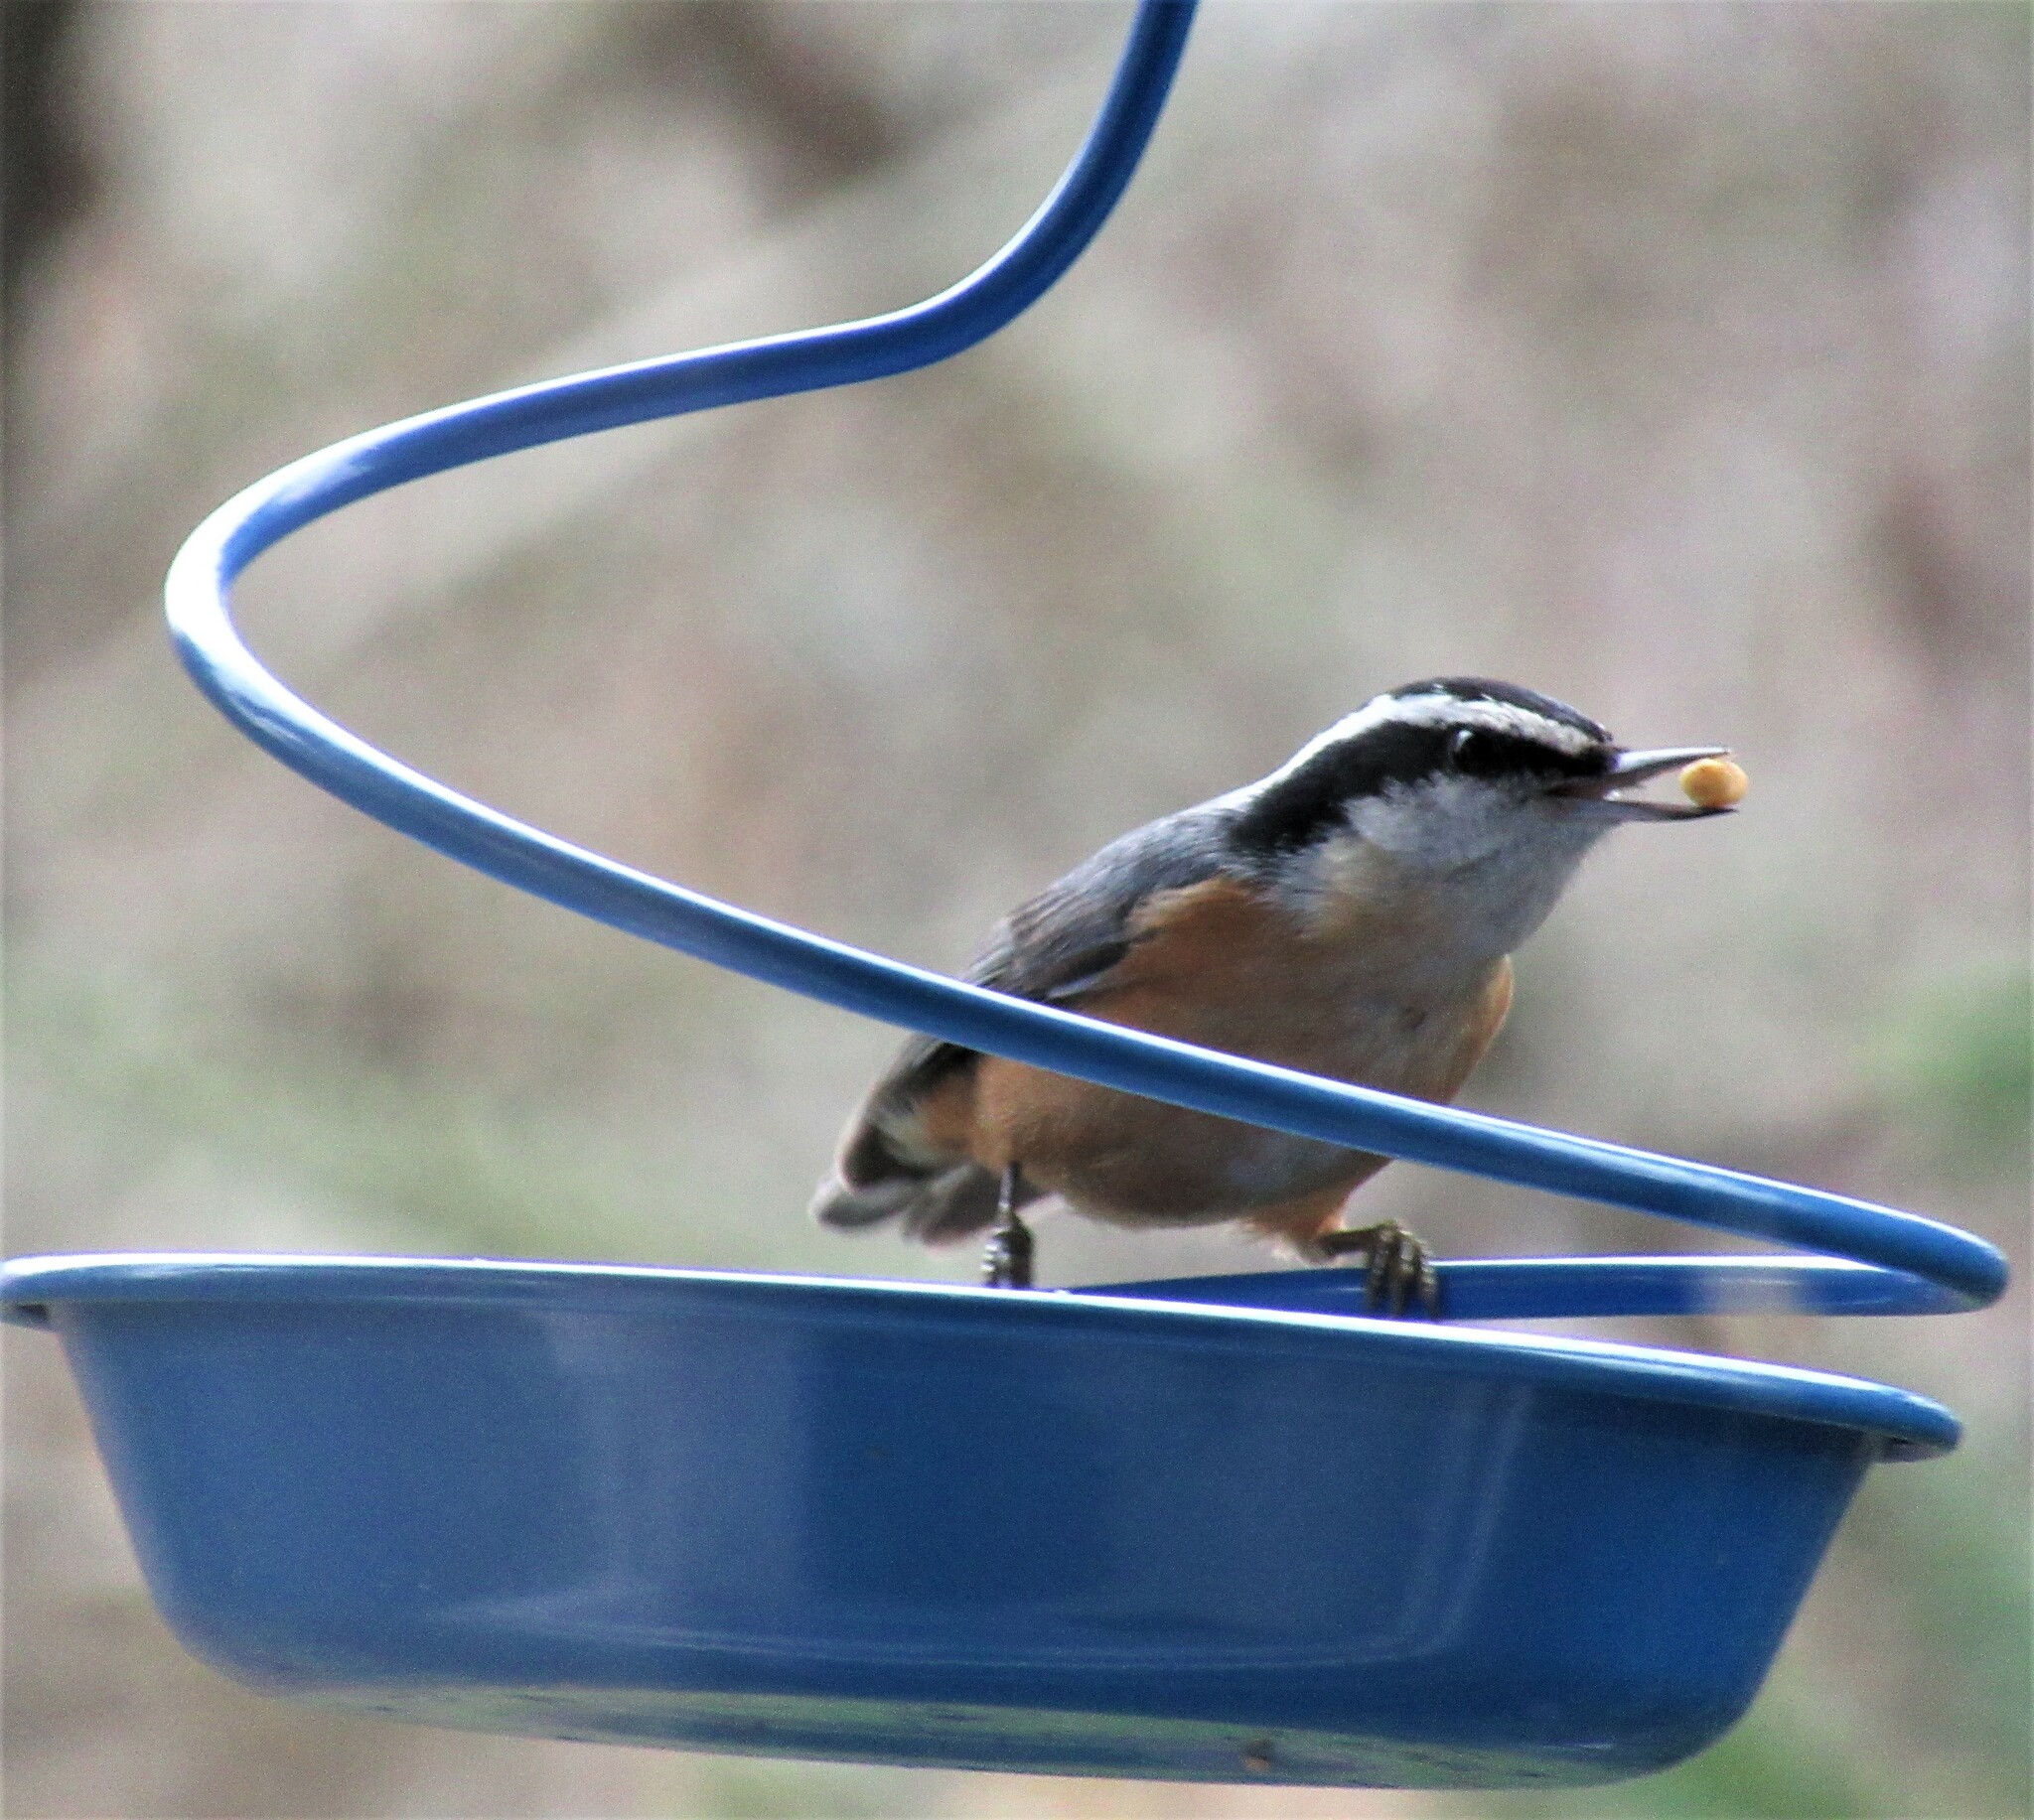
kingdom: Animalia
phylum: Chordata
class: Aves
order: Passeriformes
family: Sittidae
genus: Sitta
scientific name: Sitta canadensis
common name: Red-breasted nuthatch
